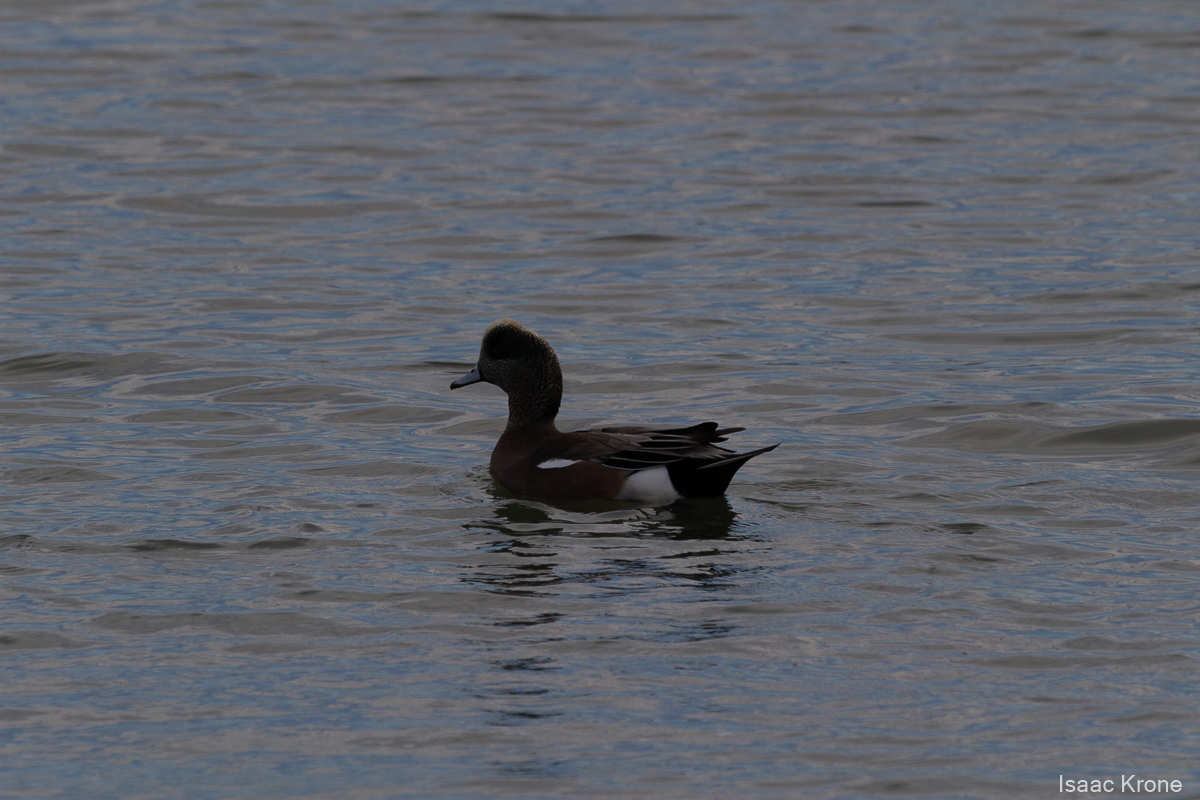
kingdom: Animalia
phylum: Chordata
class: Aves
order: Anseriformes
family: Anatidae
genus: Mareca
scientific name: Mareca americana
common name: American wigeon
